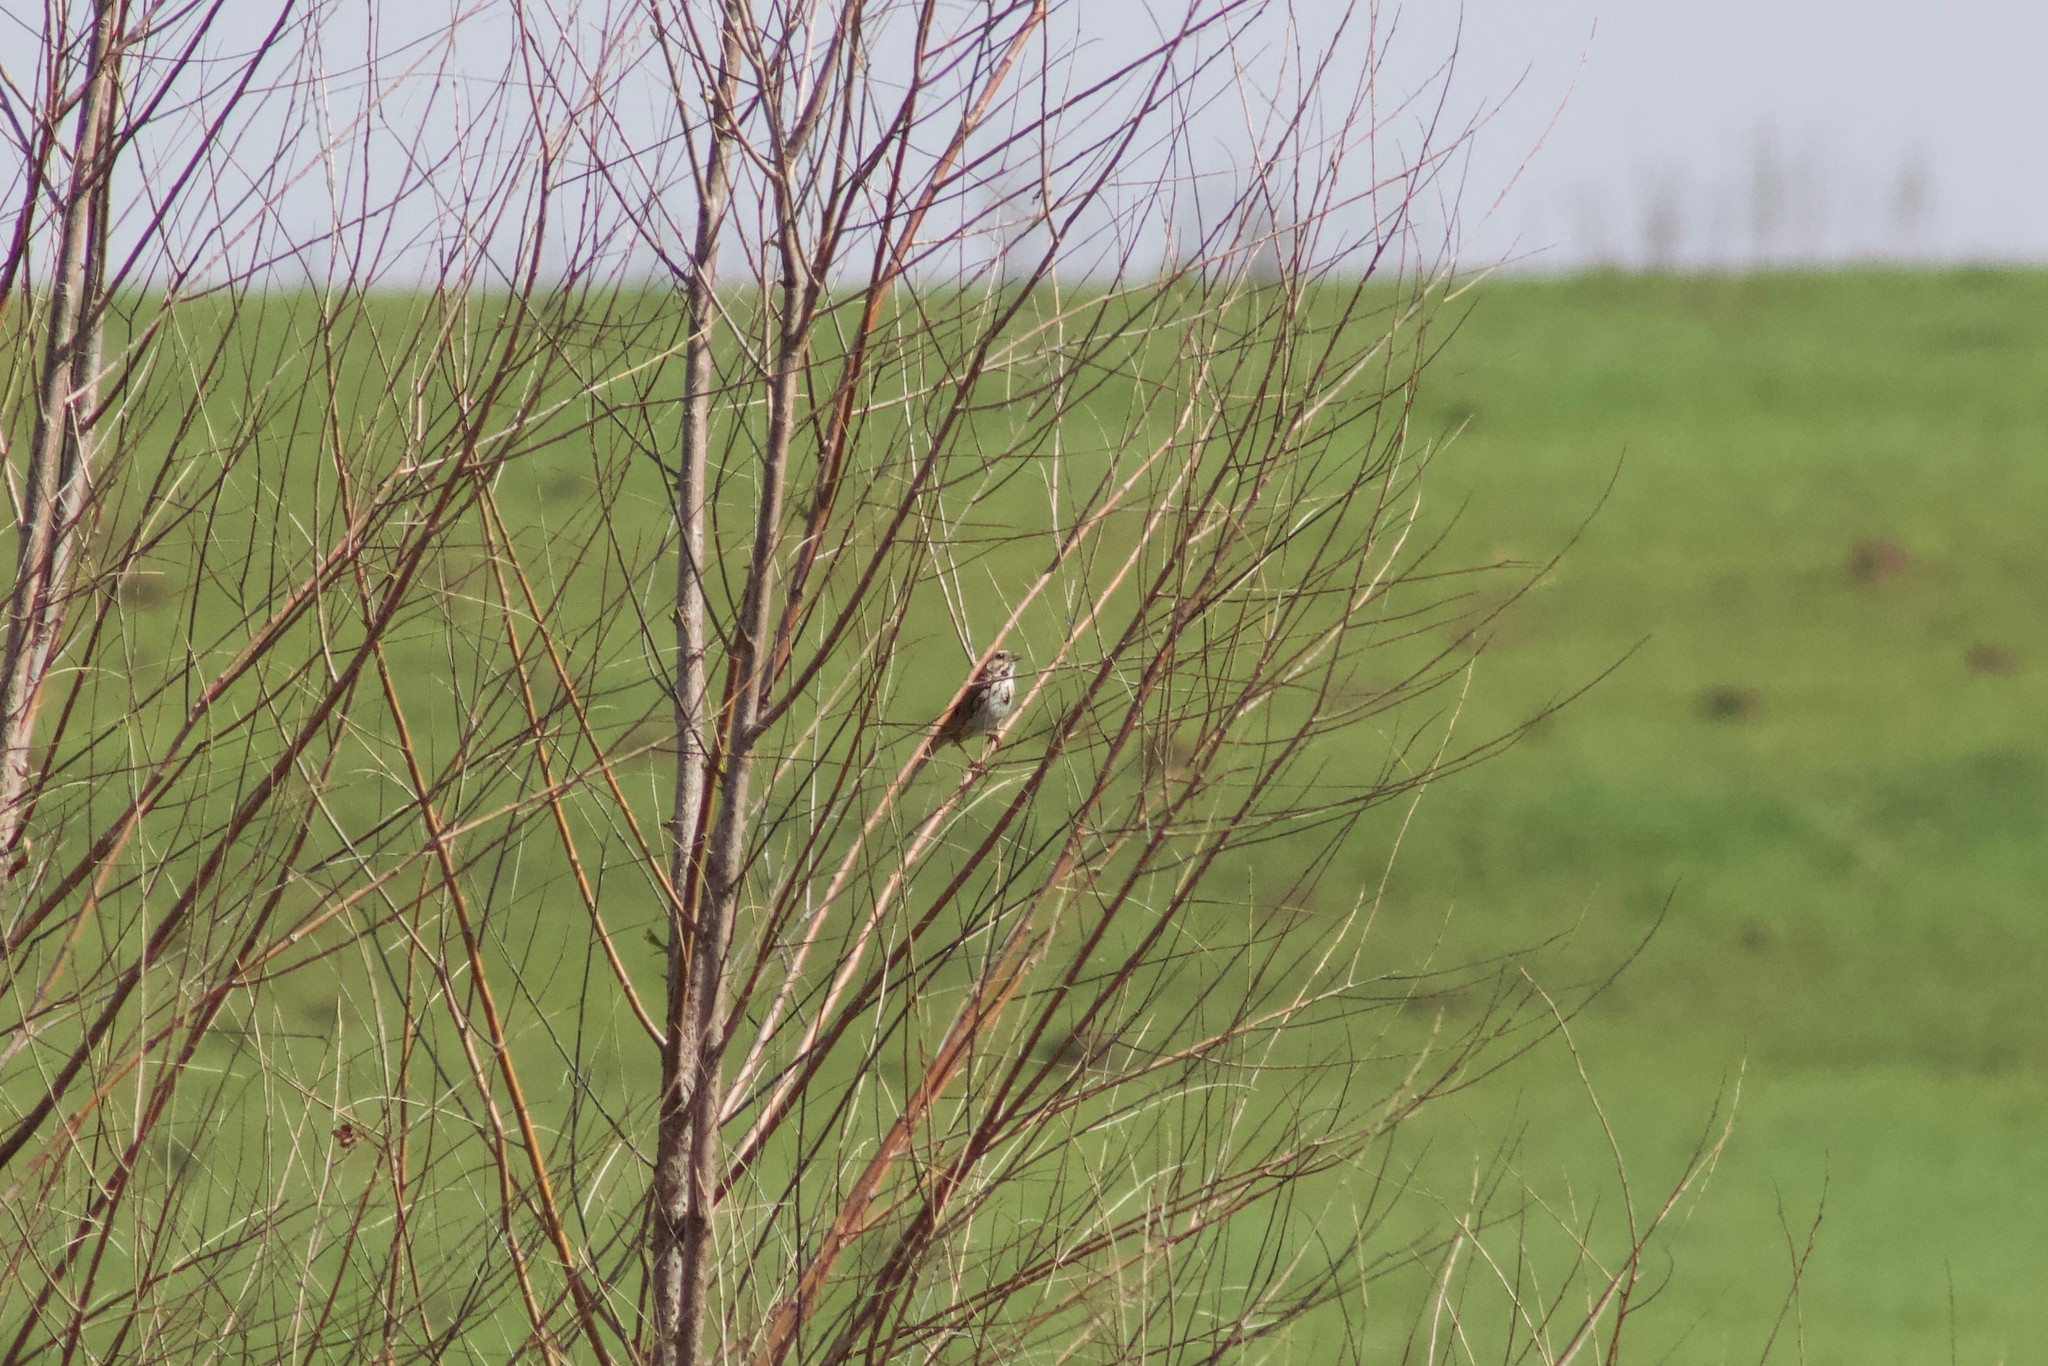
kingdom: Animalia
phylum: Chordata
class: Aves
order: Passeriformes
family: Passerellidae
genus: Melospiza
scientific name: Melospiza melodia
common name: Song sparrow
